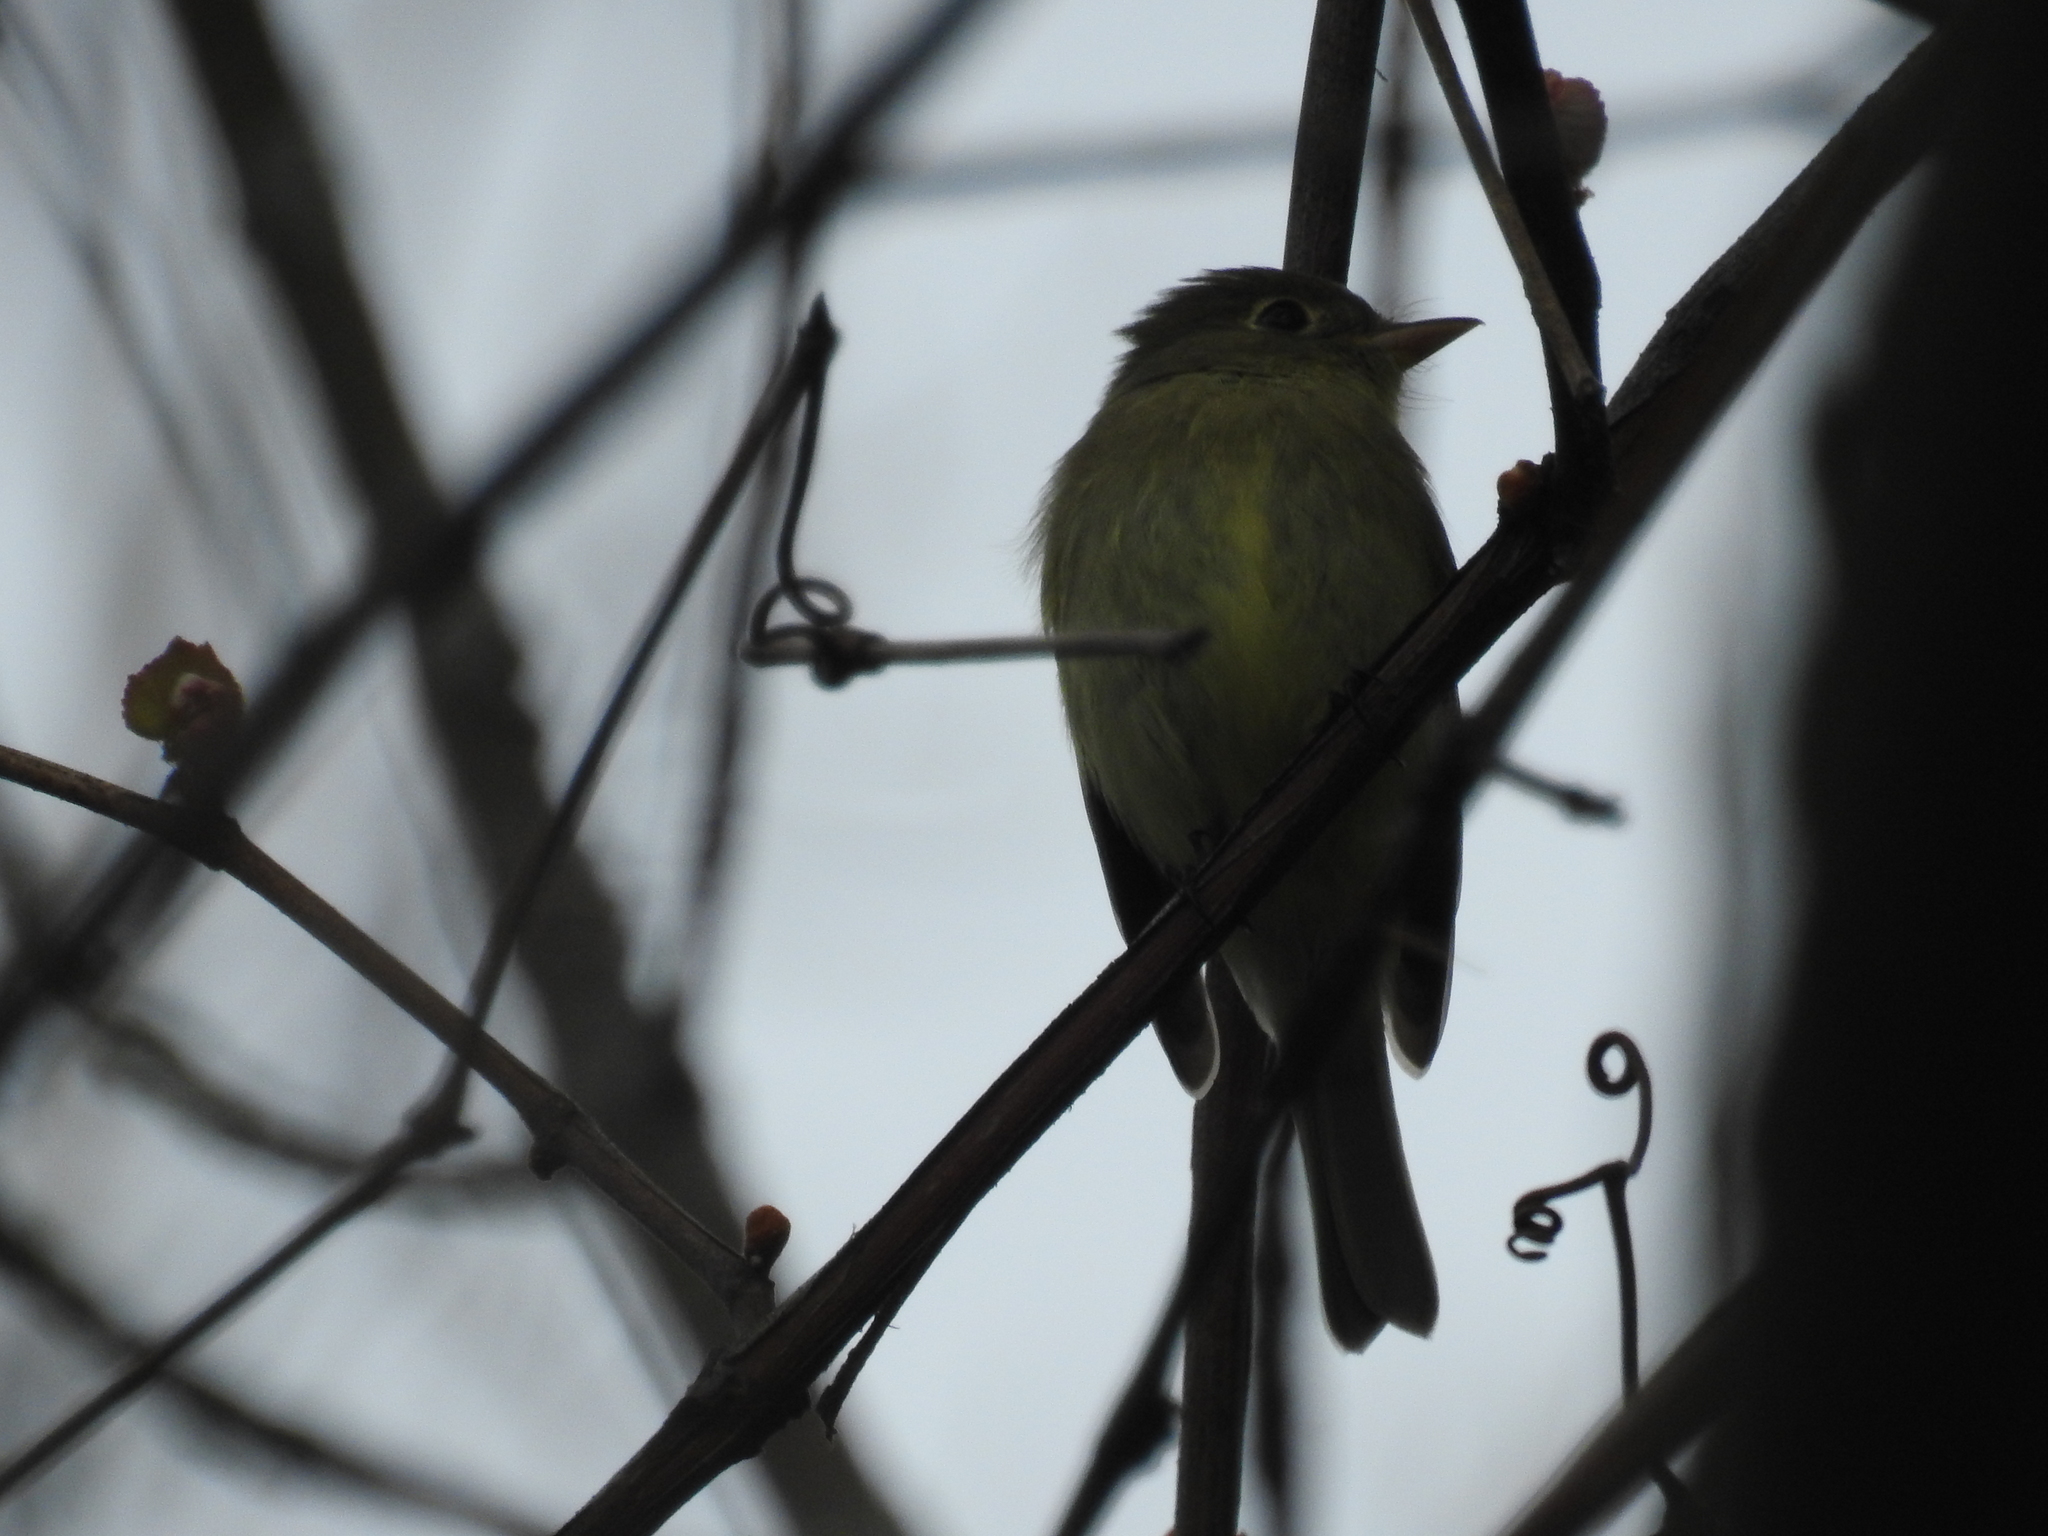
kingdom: Animalia
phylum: Chordata
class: Aves
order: Passeriformes
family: Tyrannidae
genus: Empidonax
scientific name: Empidonax flaviventris
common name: Yellow-bellied flycatcher
